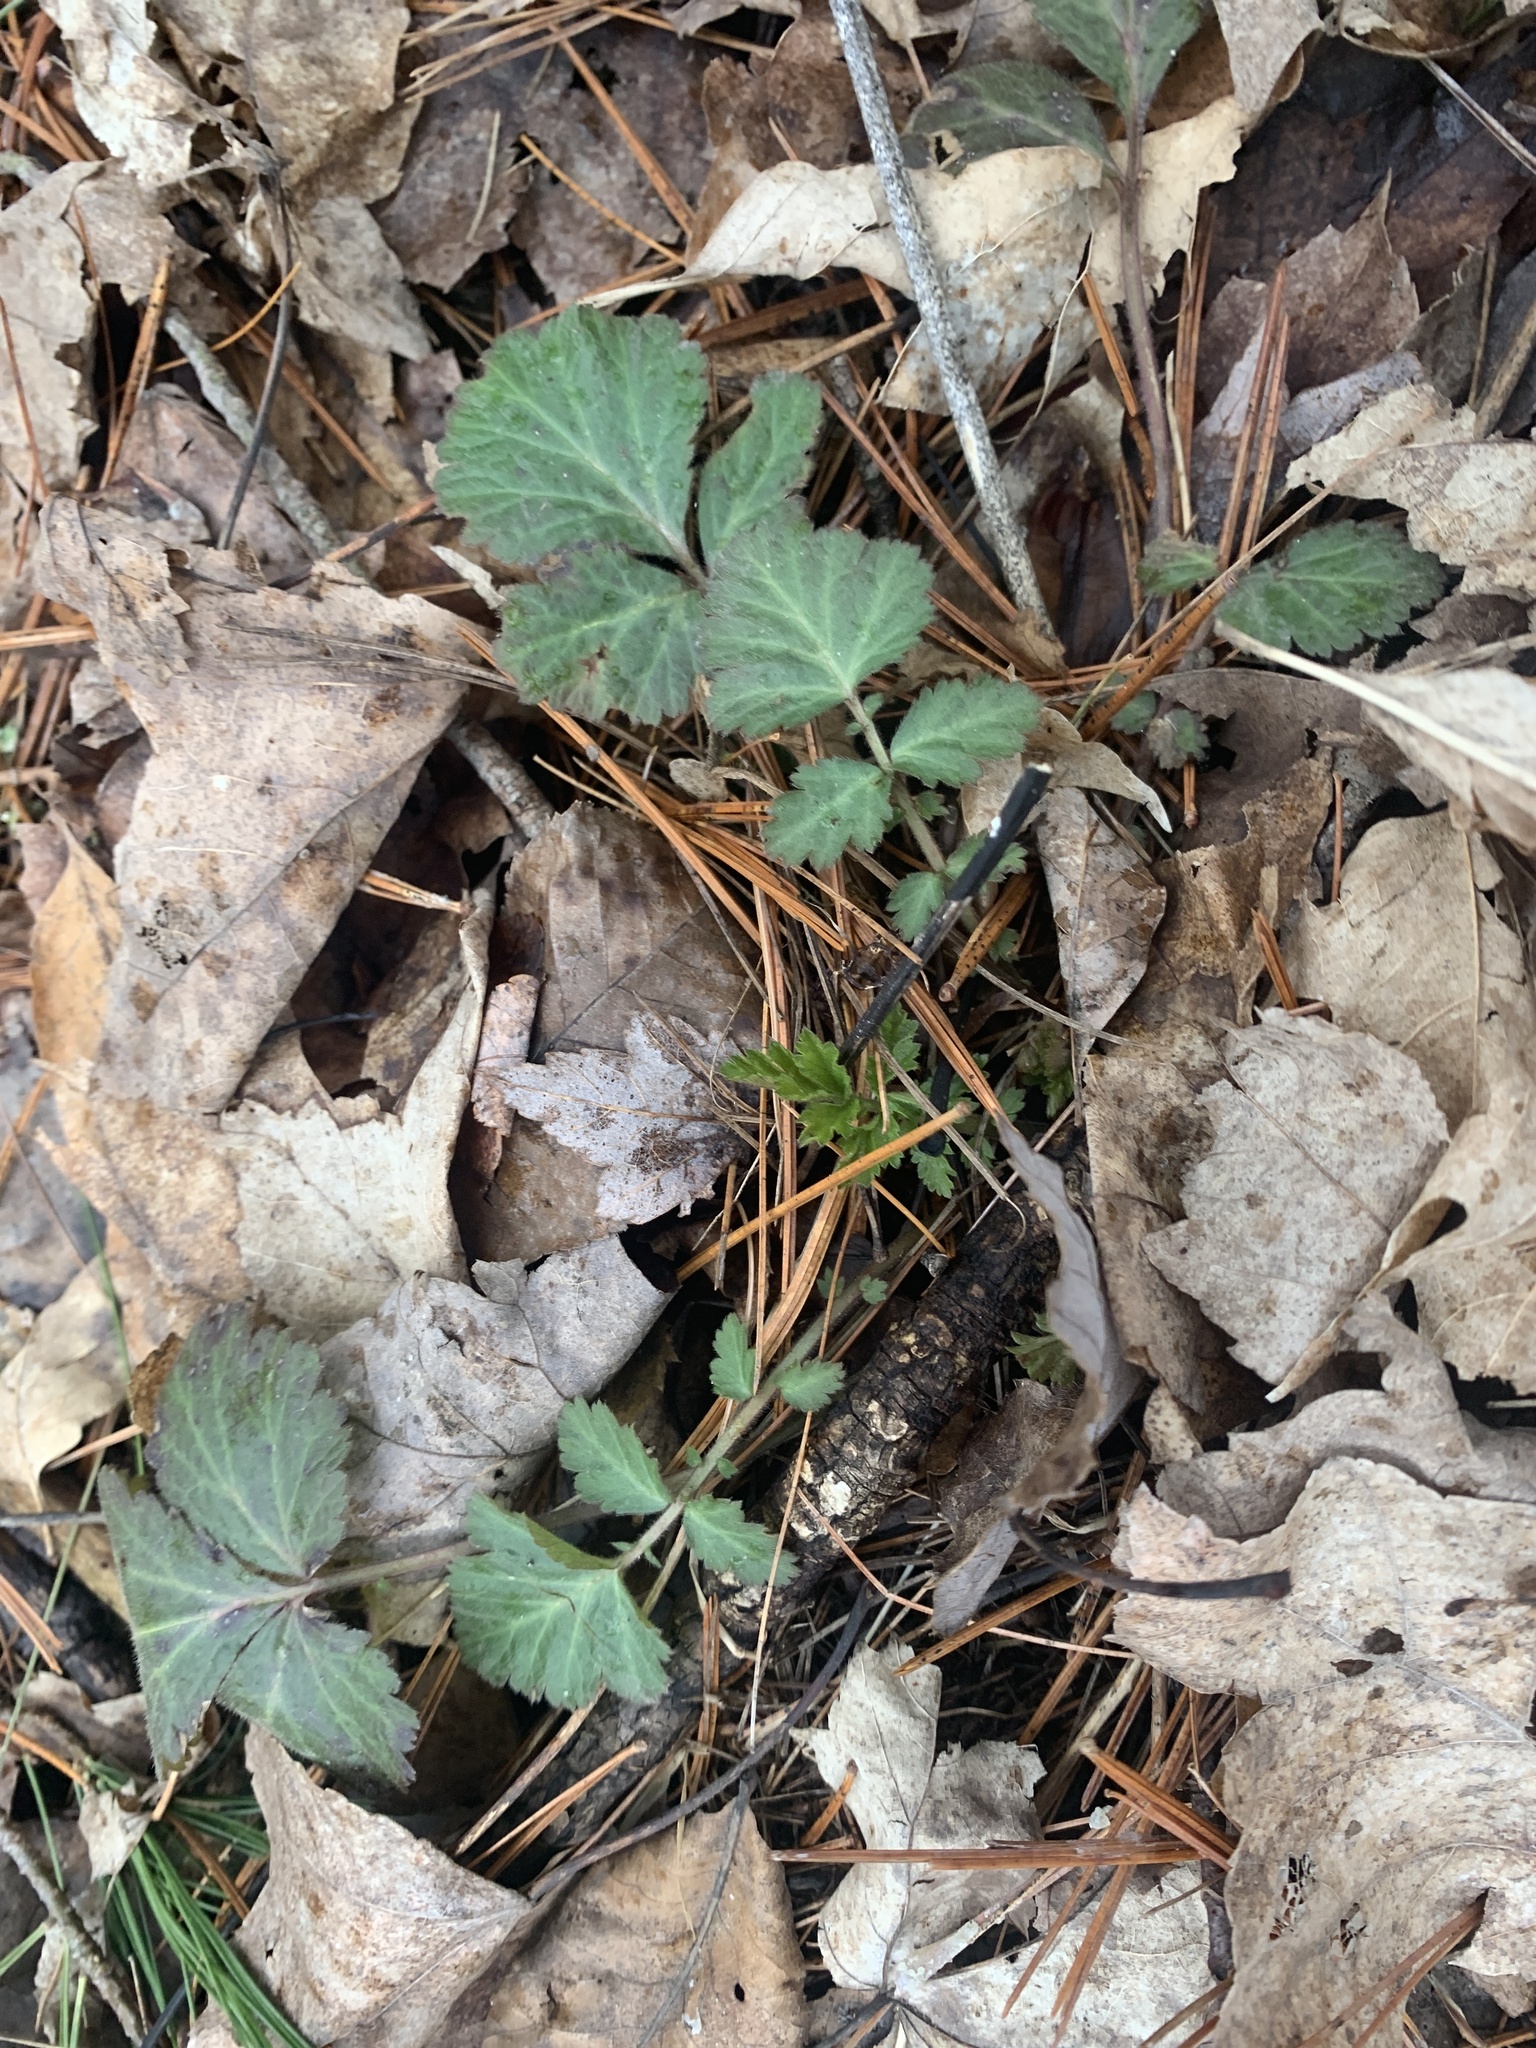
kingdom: Plantae
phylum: Tracheophyta
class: Magnoliopsida
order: Rosales
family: Rosaceae
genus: Geum
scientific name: Geum canadense
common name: White avens
